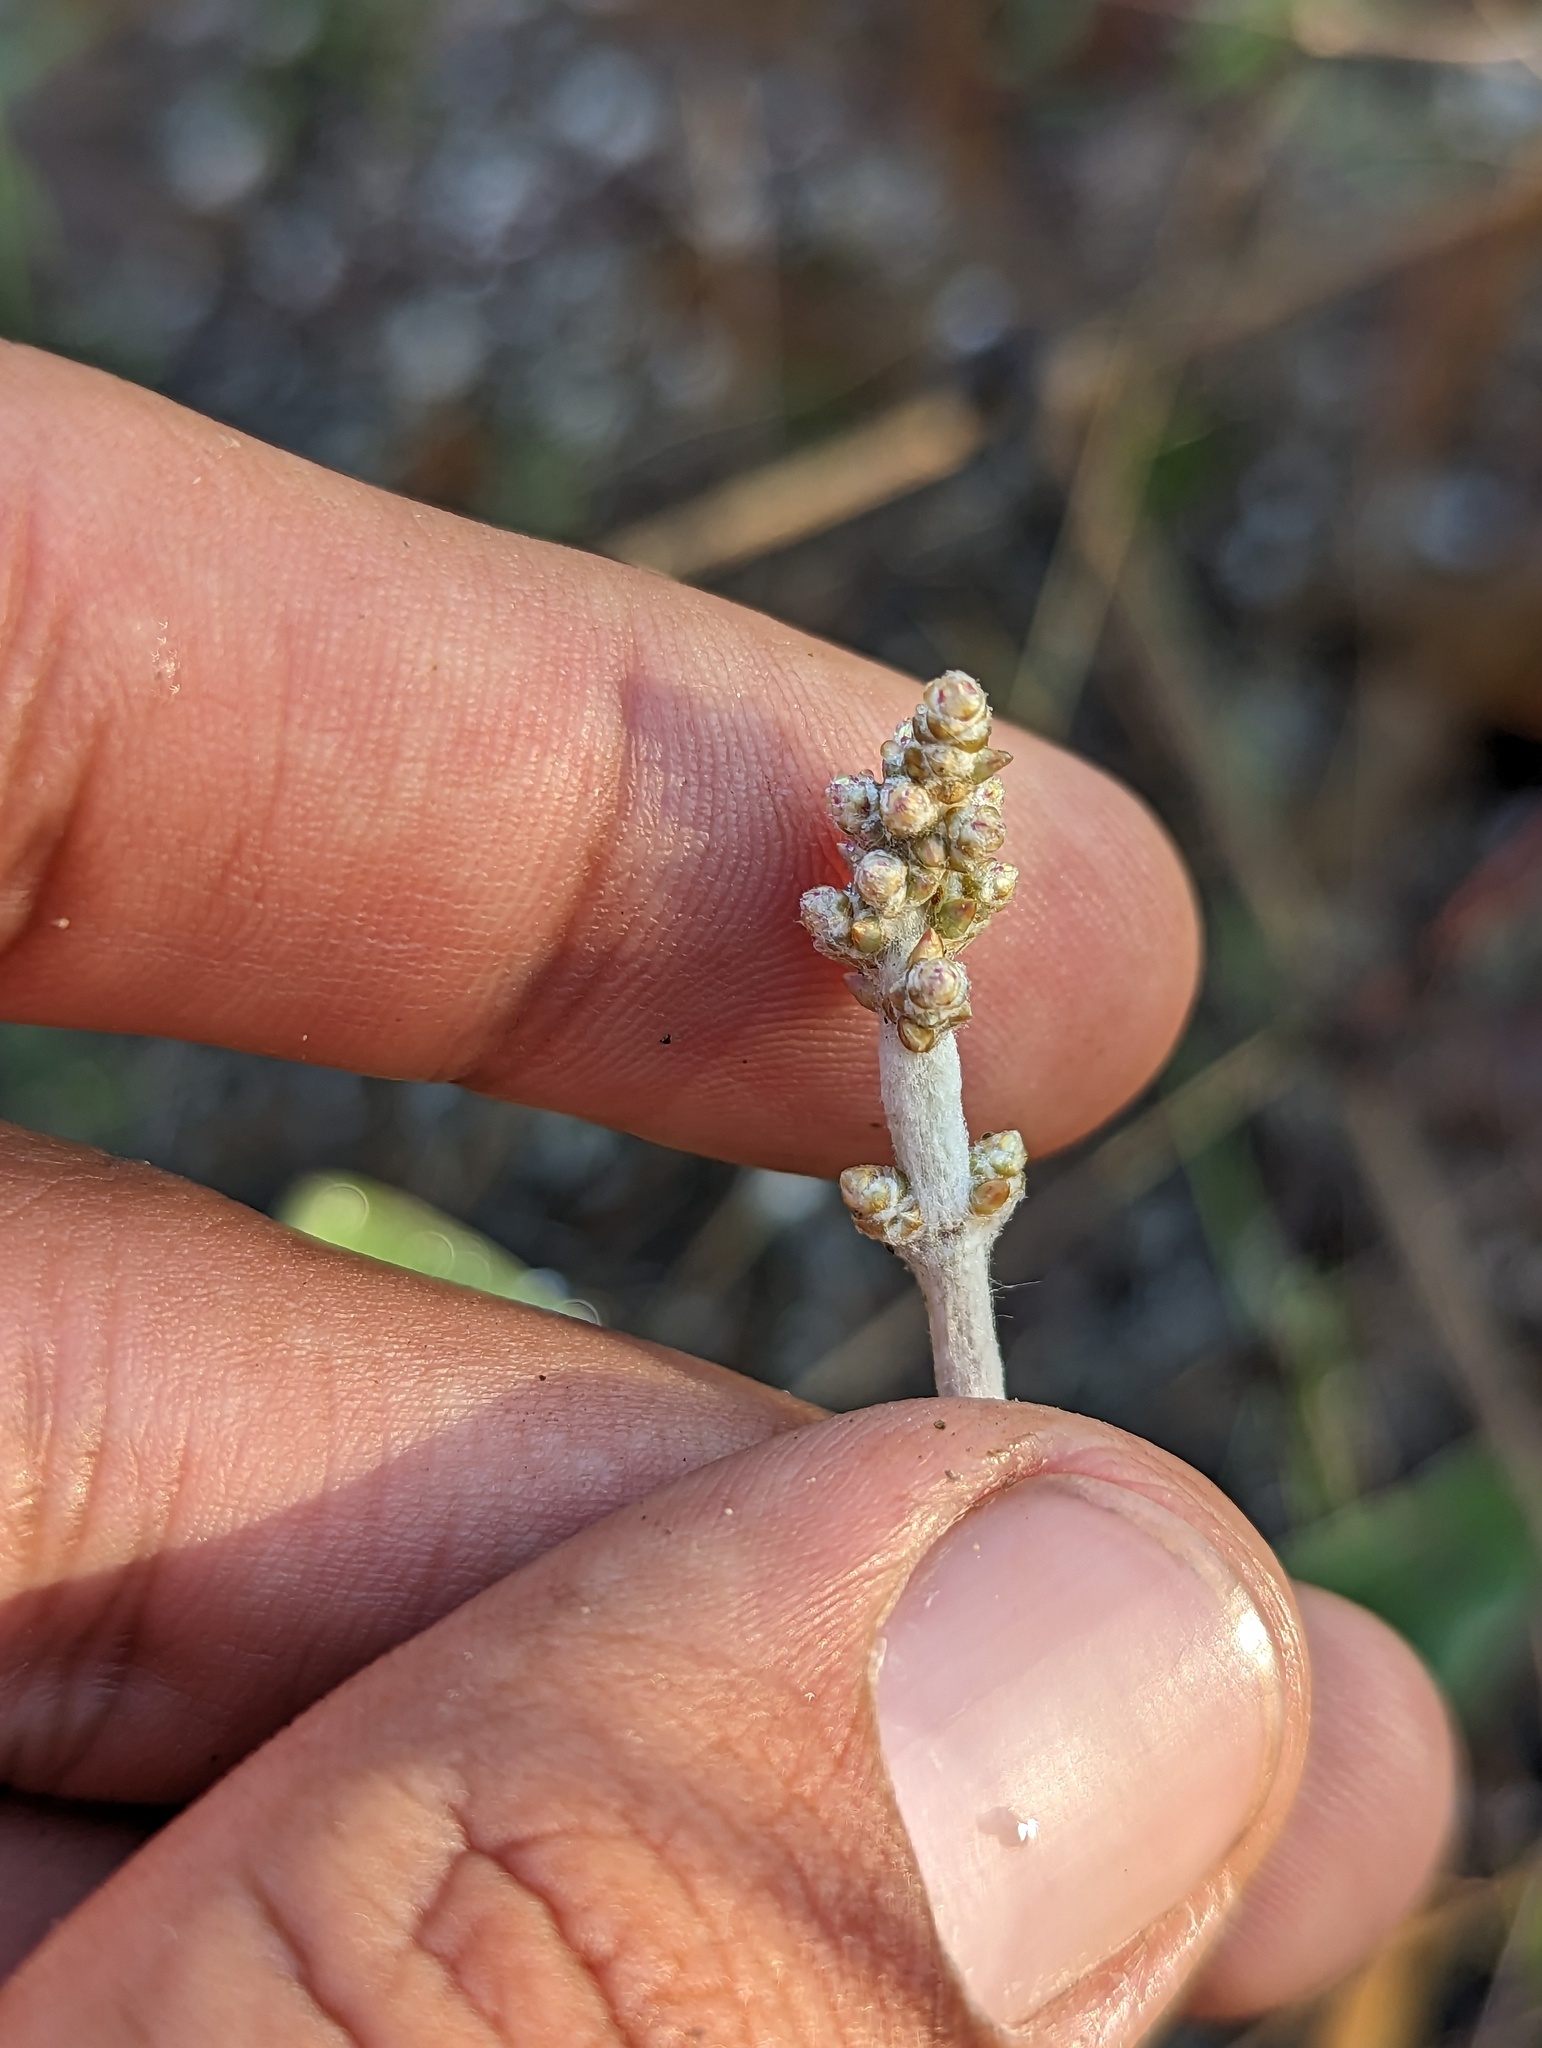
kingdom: Plantae
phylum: Tracheophyta
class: Magnoliopsida
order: Caryophyllales
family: Amaranthaceae
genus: Froelichia
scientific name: Froelichia xantusii
